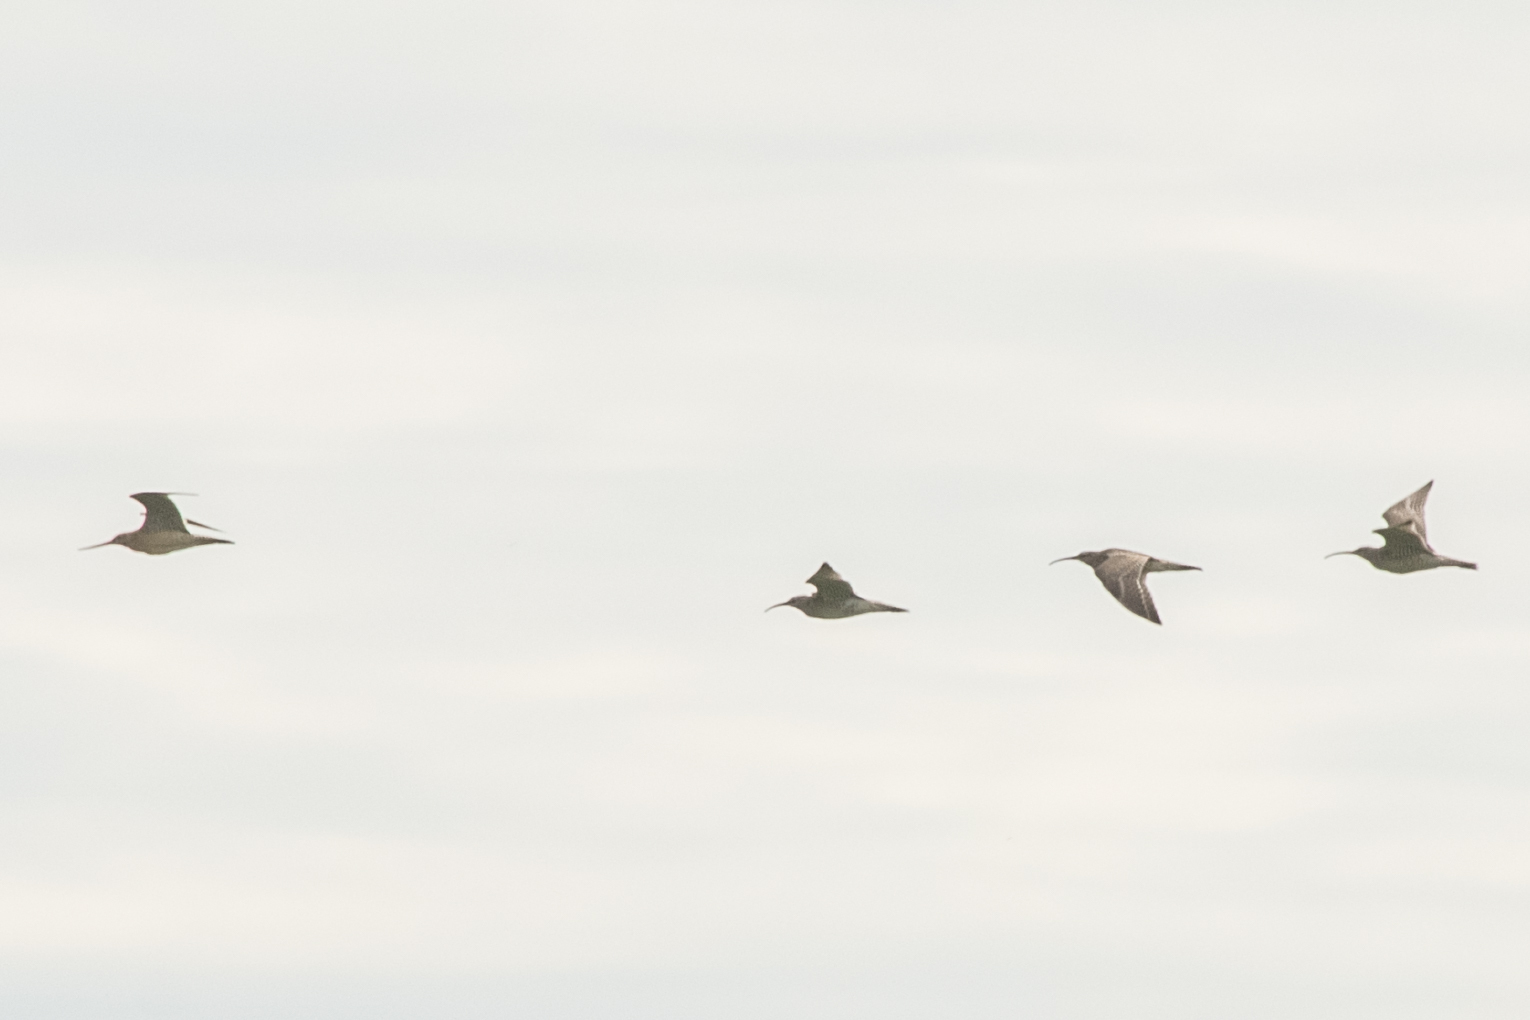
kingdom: Animalia
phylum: Chordata
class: Aves
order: Charadriiformes
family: Scolopacidae
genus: Numenius
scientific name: Numenius phaeopus
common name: Whimbrel
